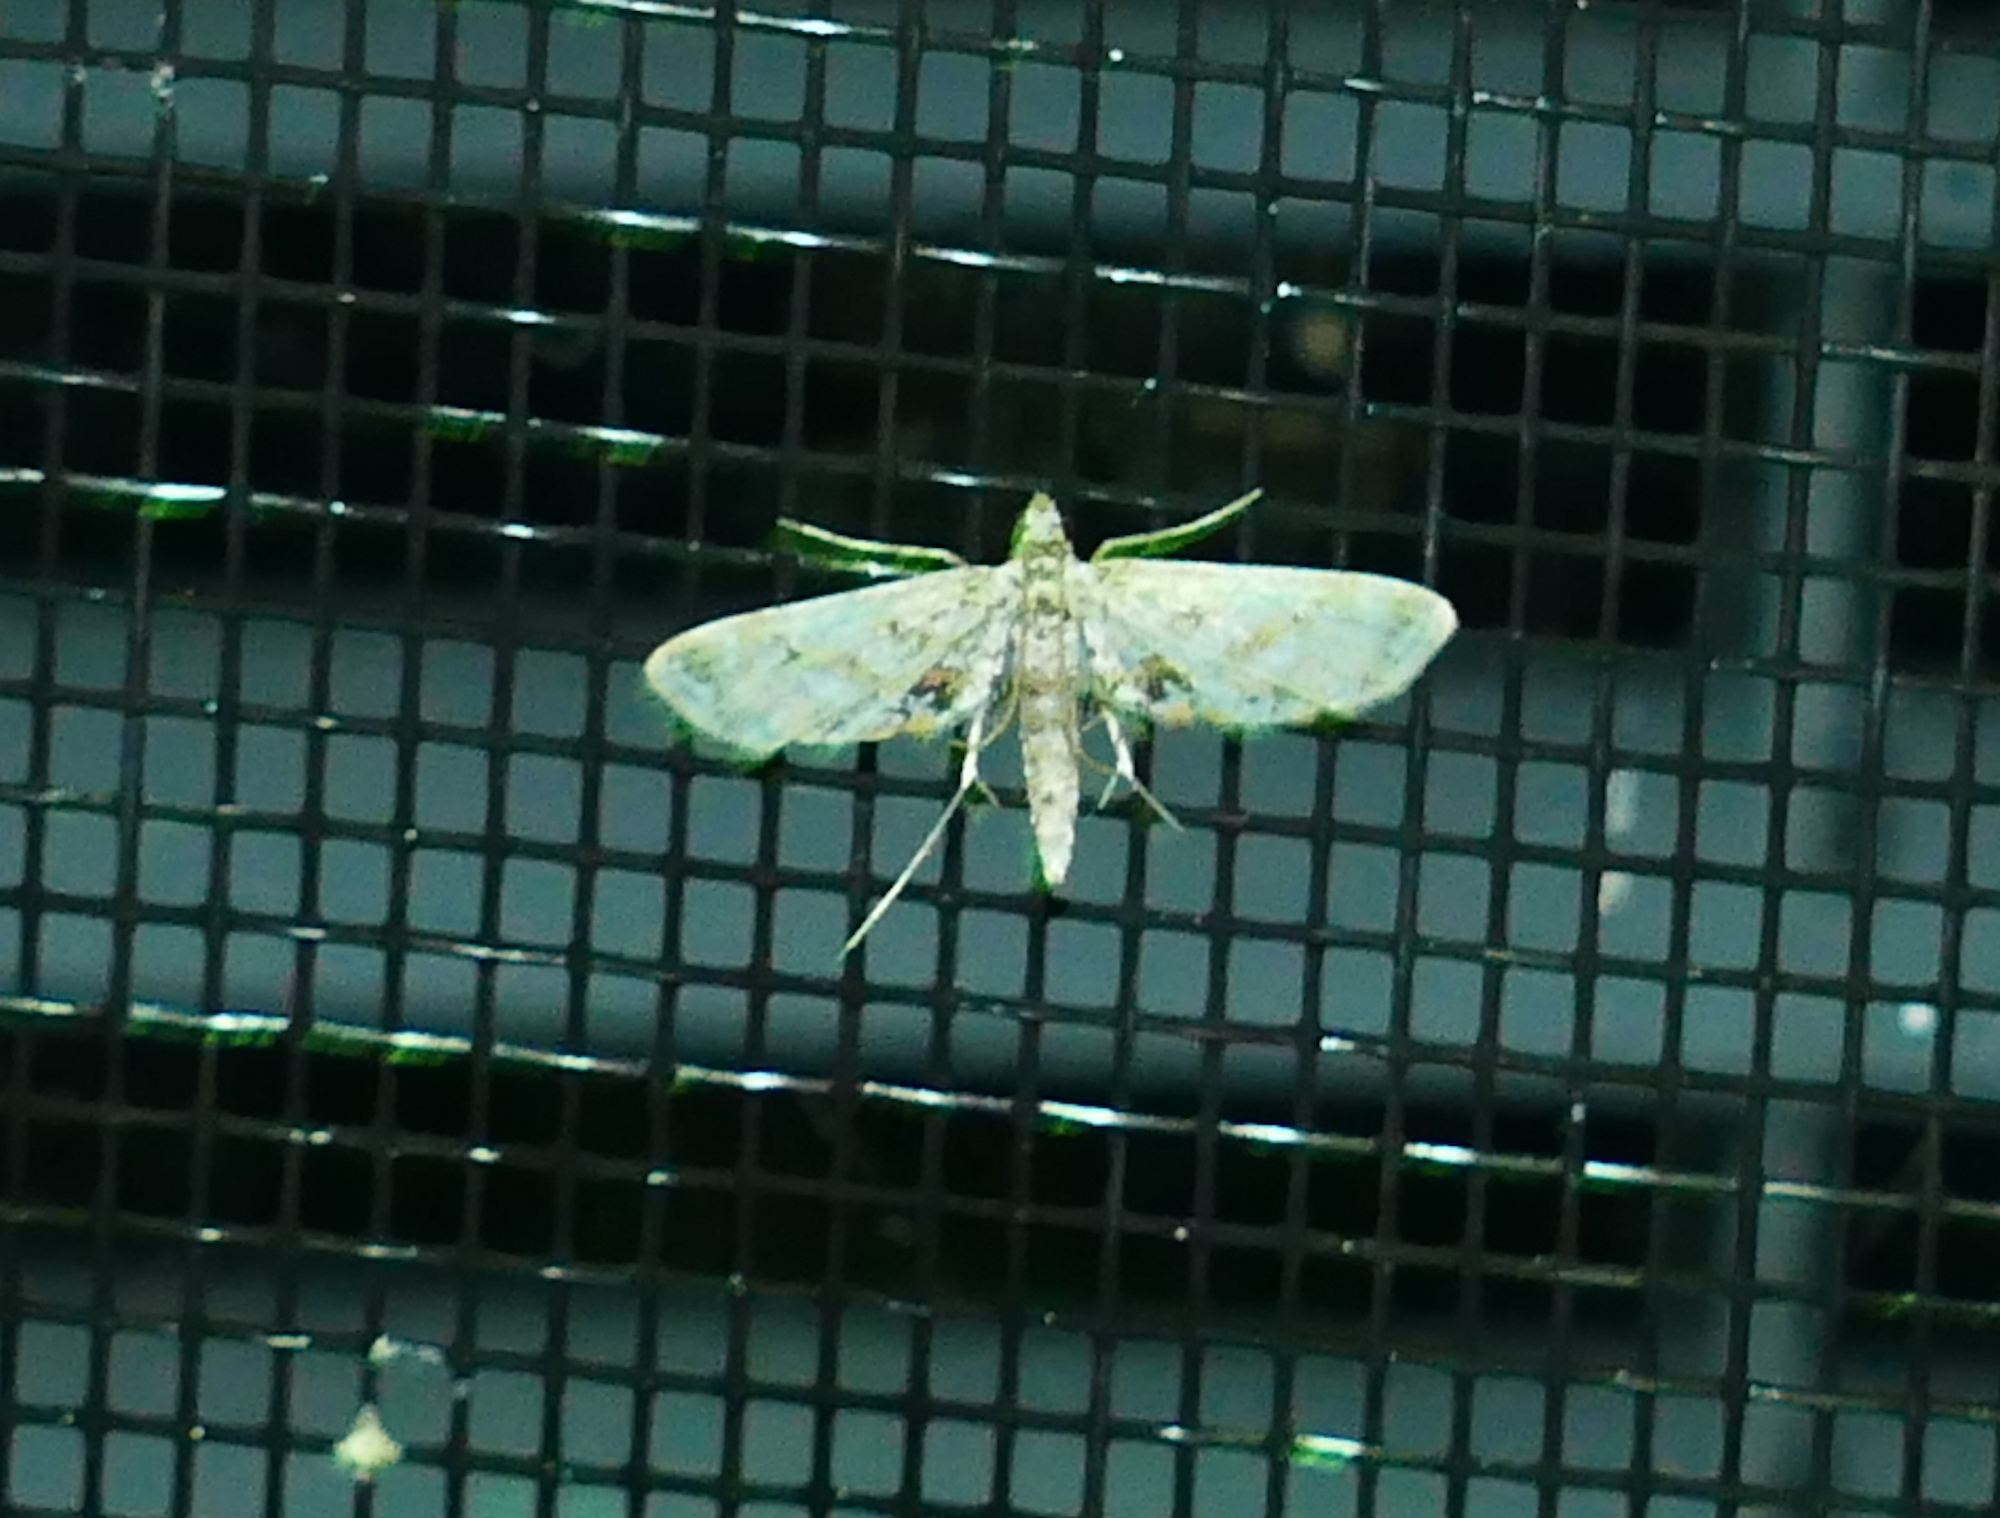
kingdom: Animalia
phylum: Arthropoda
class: Insecta
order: Lepidoptera
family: Crambidae
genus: Parapoynx
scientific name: Parapoynx diminutalis
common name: Hydrilla leafcutter
